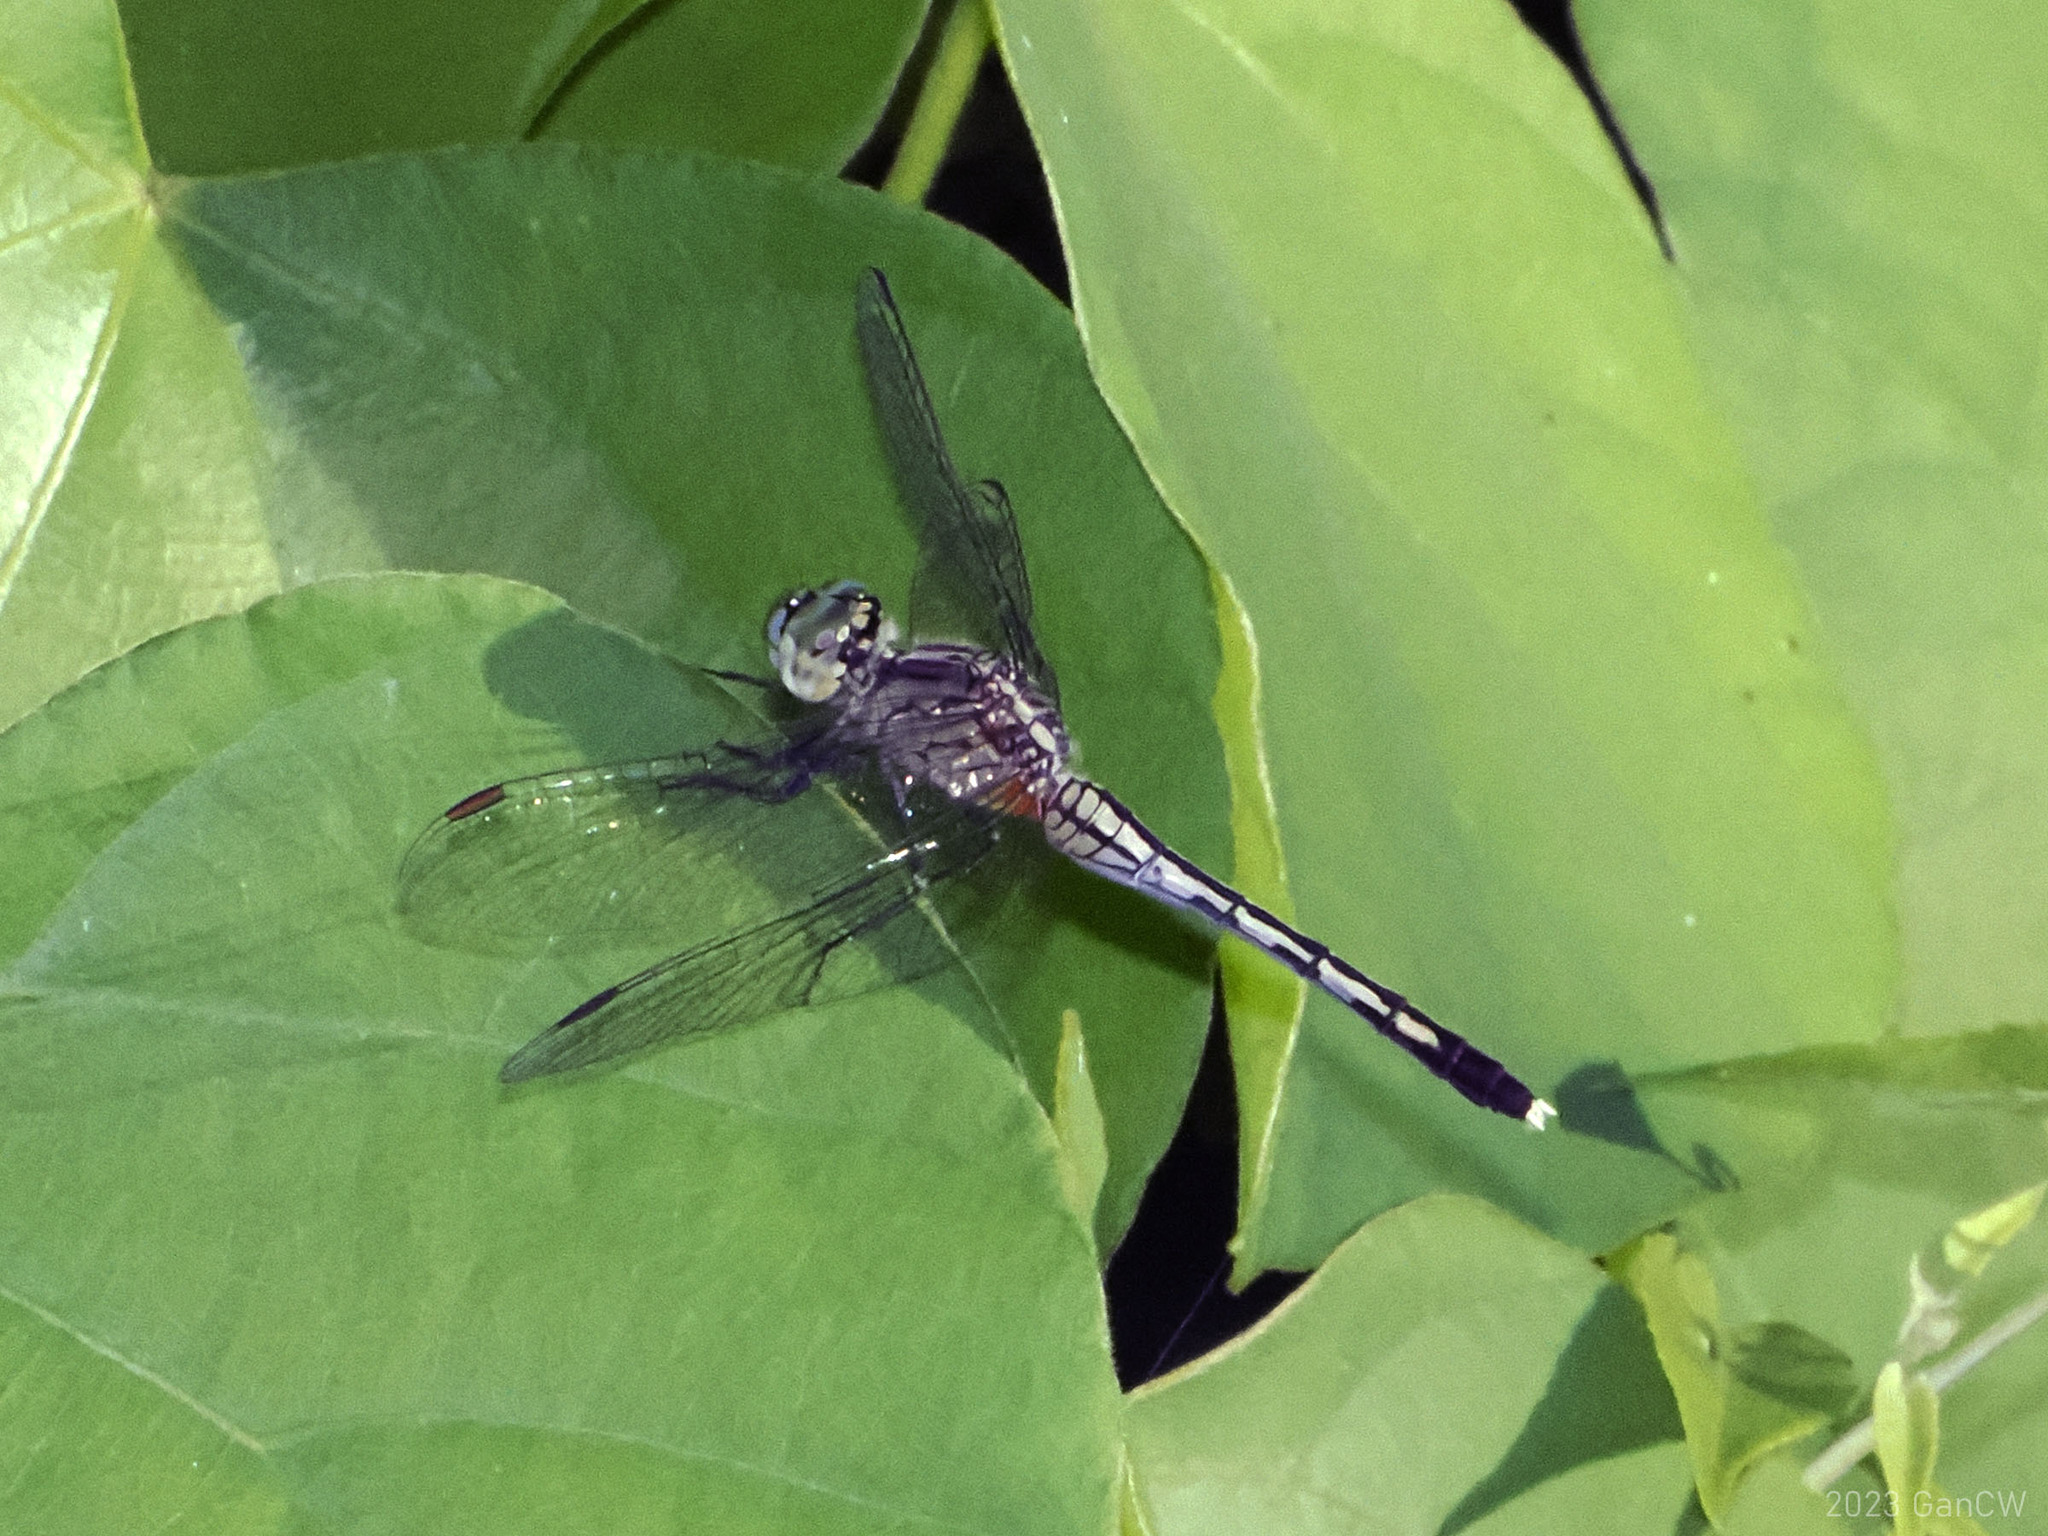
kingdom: Animalia
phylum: Arthropoda
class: Insecta
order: Odonata
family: Libellulidae
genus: Diplacodes
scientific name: Diplacodes trivialis
